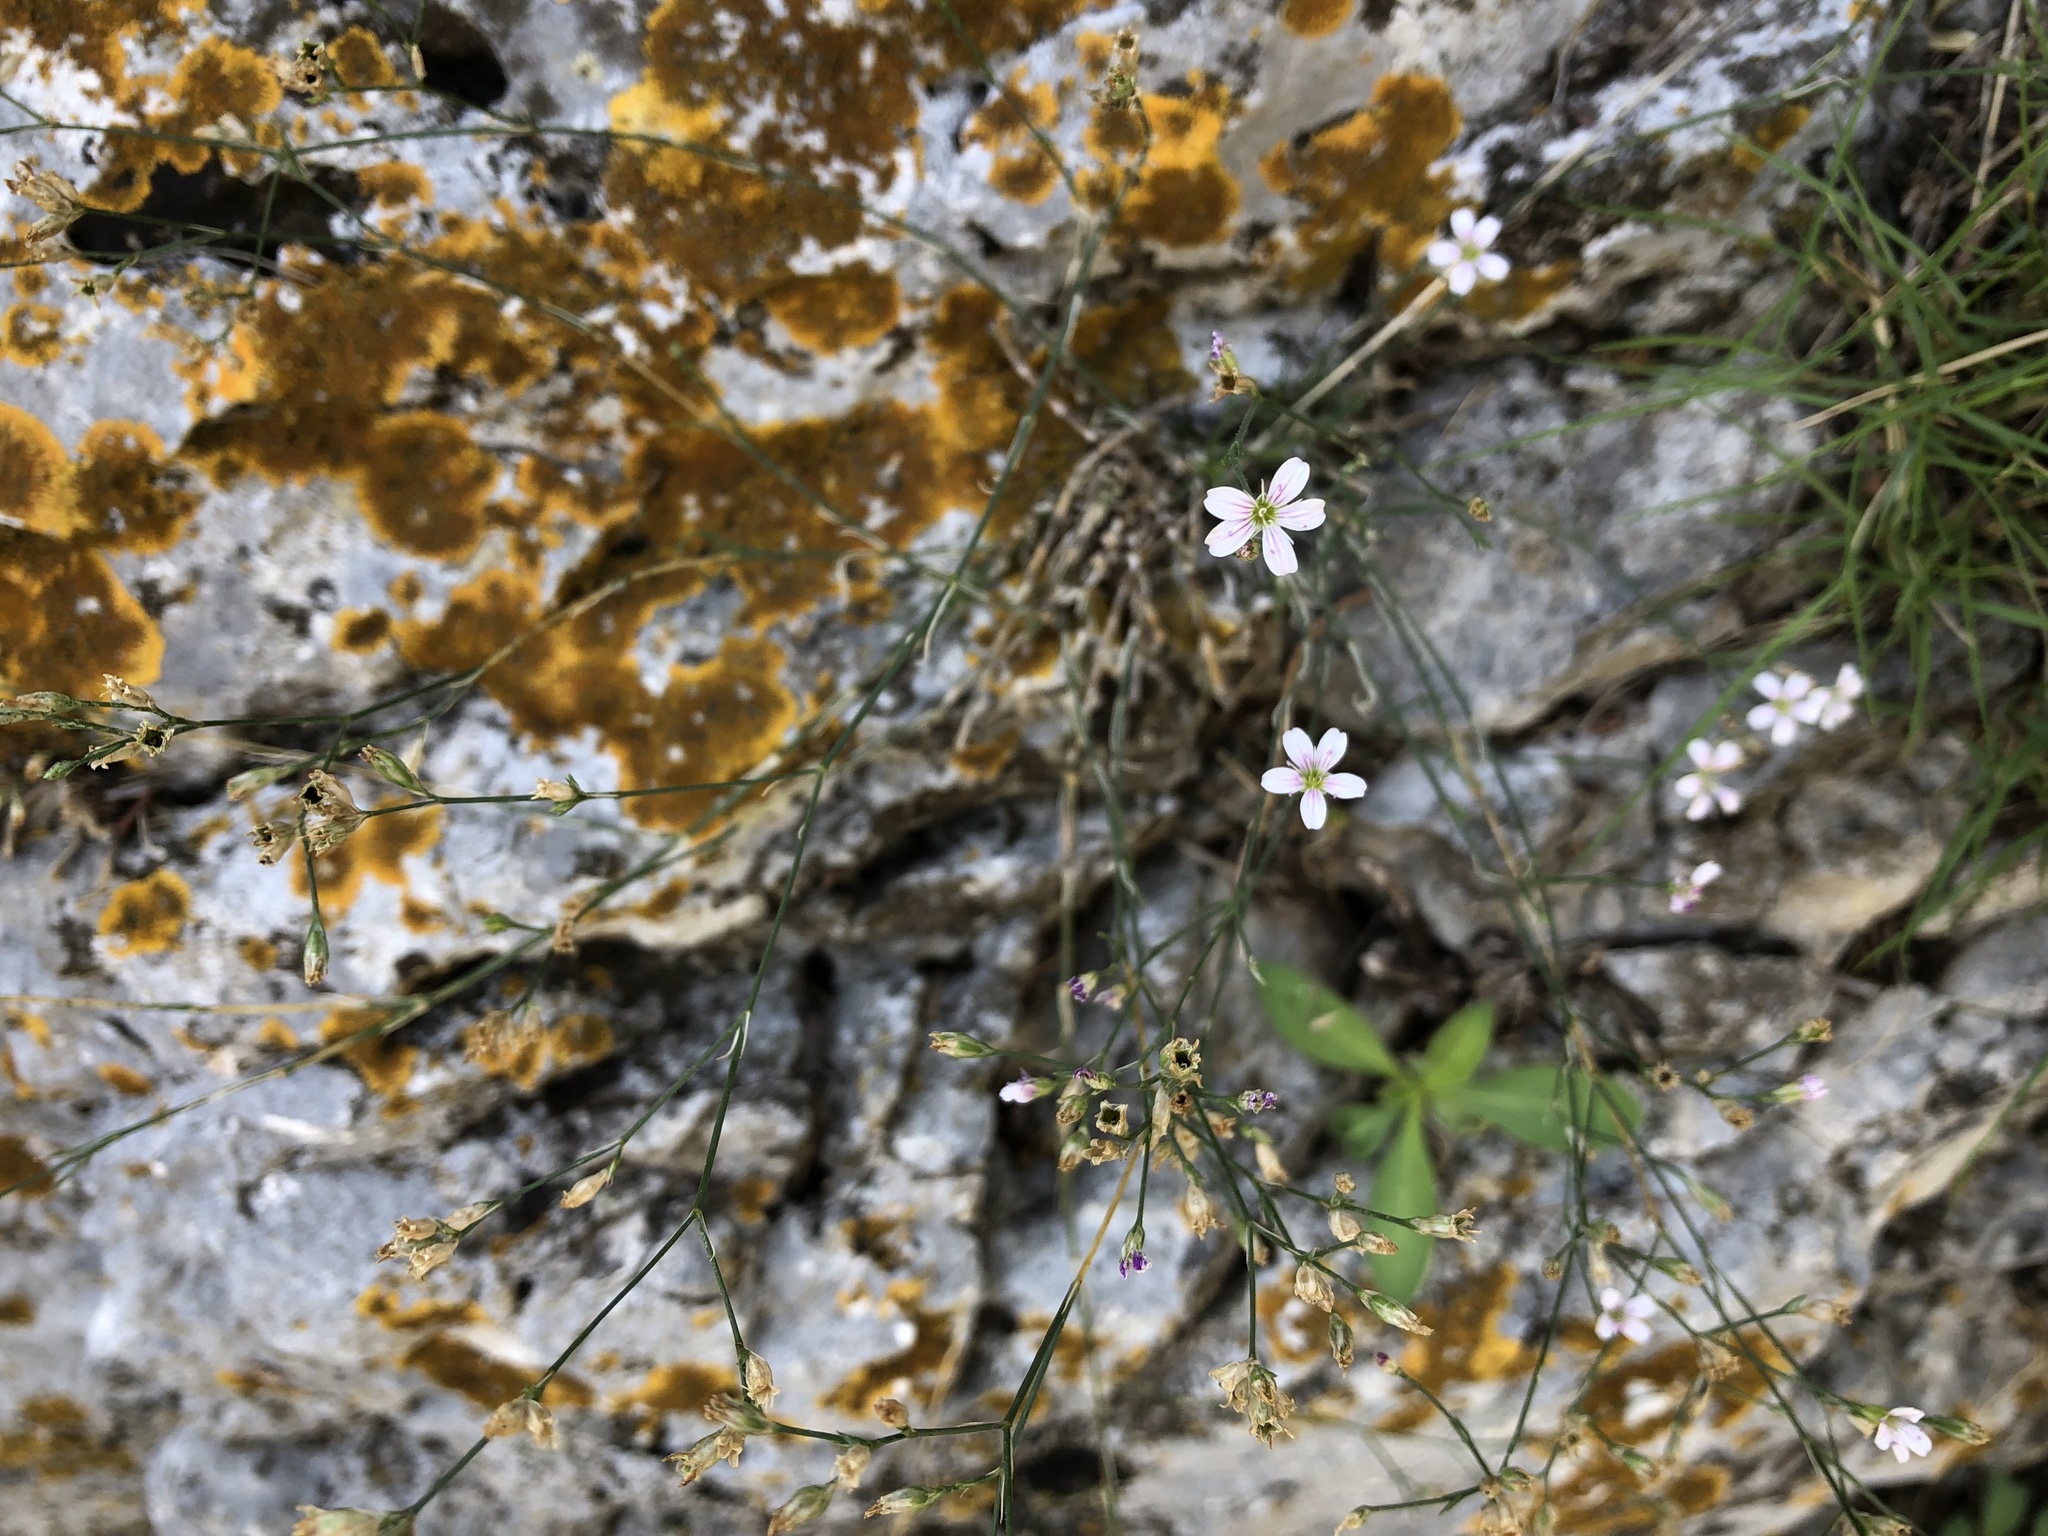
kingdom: Plantae
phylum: Tracheophyta
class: Magnoliopsida
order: Caryophyllales
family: Caryophyllaceae
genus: Petrorhagia
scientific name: Petrorhagia saxifraga
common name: Tunicflower
